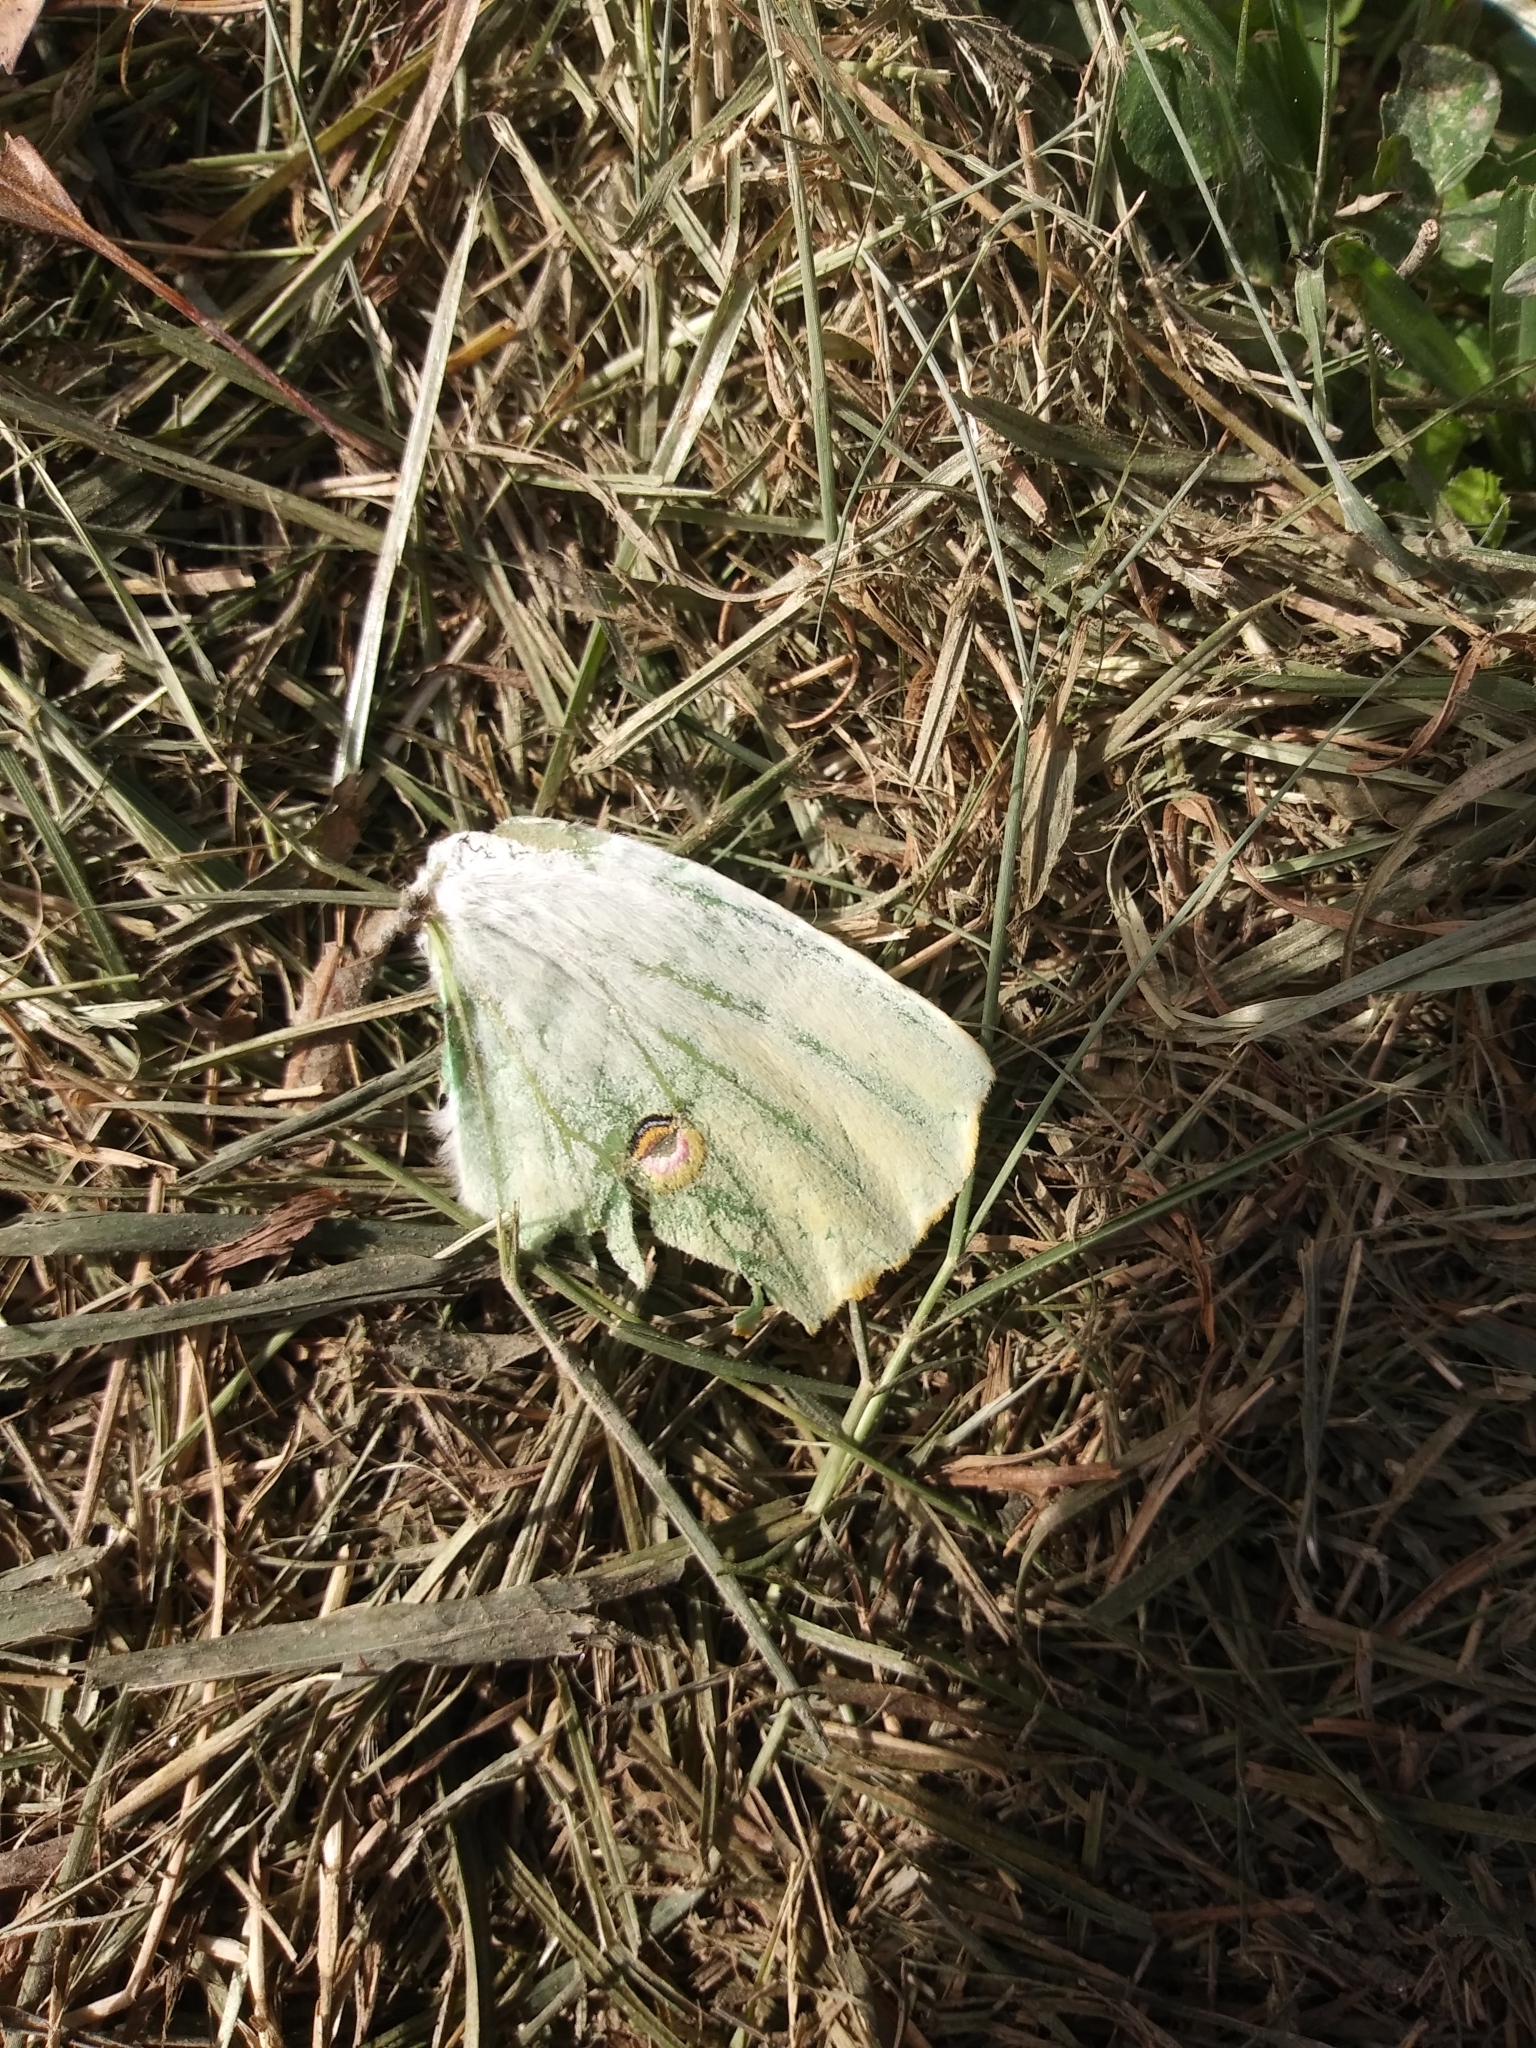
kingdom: Animalia
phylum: Arthropoda
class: Insecta
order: Lepidoptera
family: Saturniidae
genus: Actias
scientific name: Actias luna
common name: Luna moth
